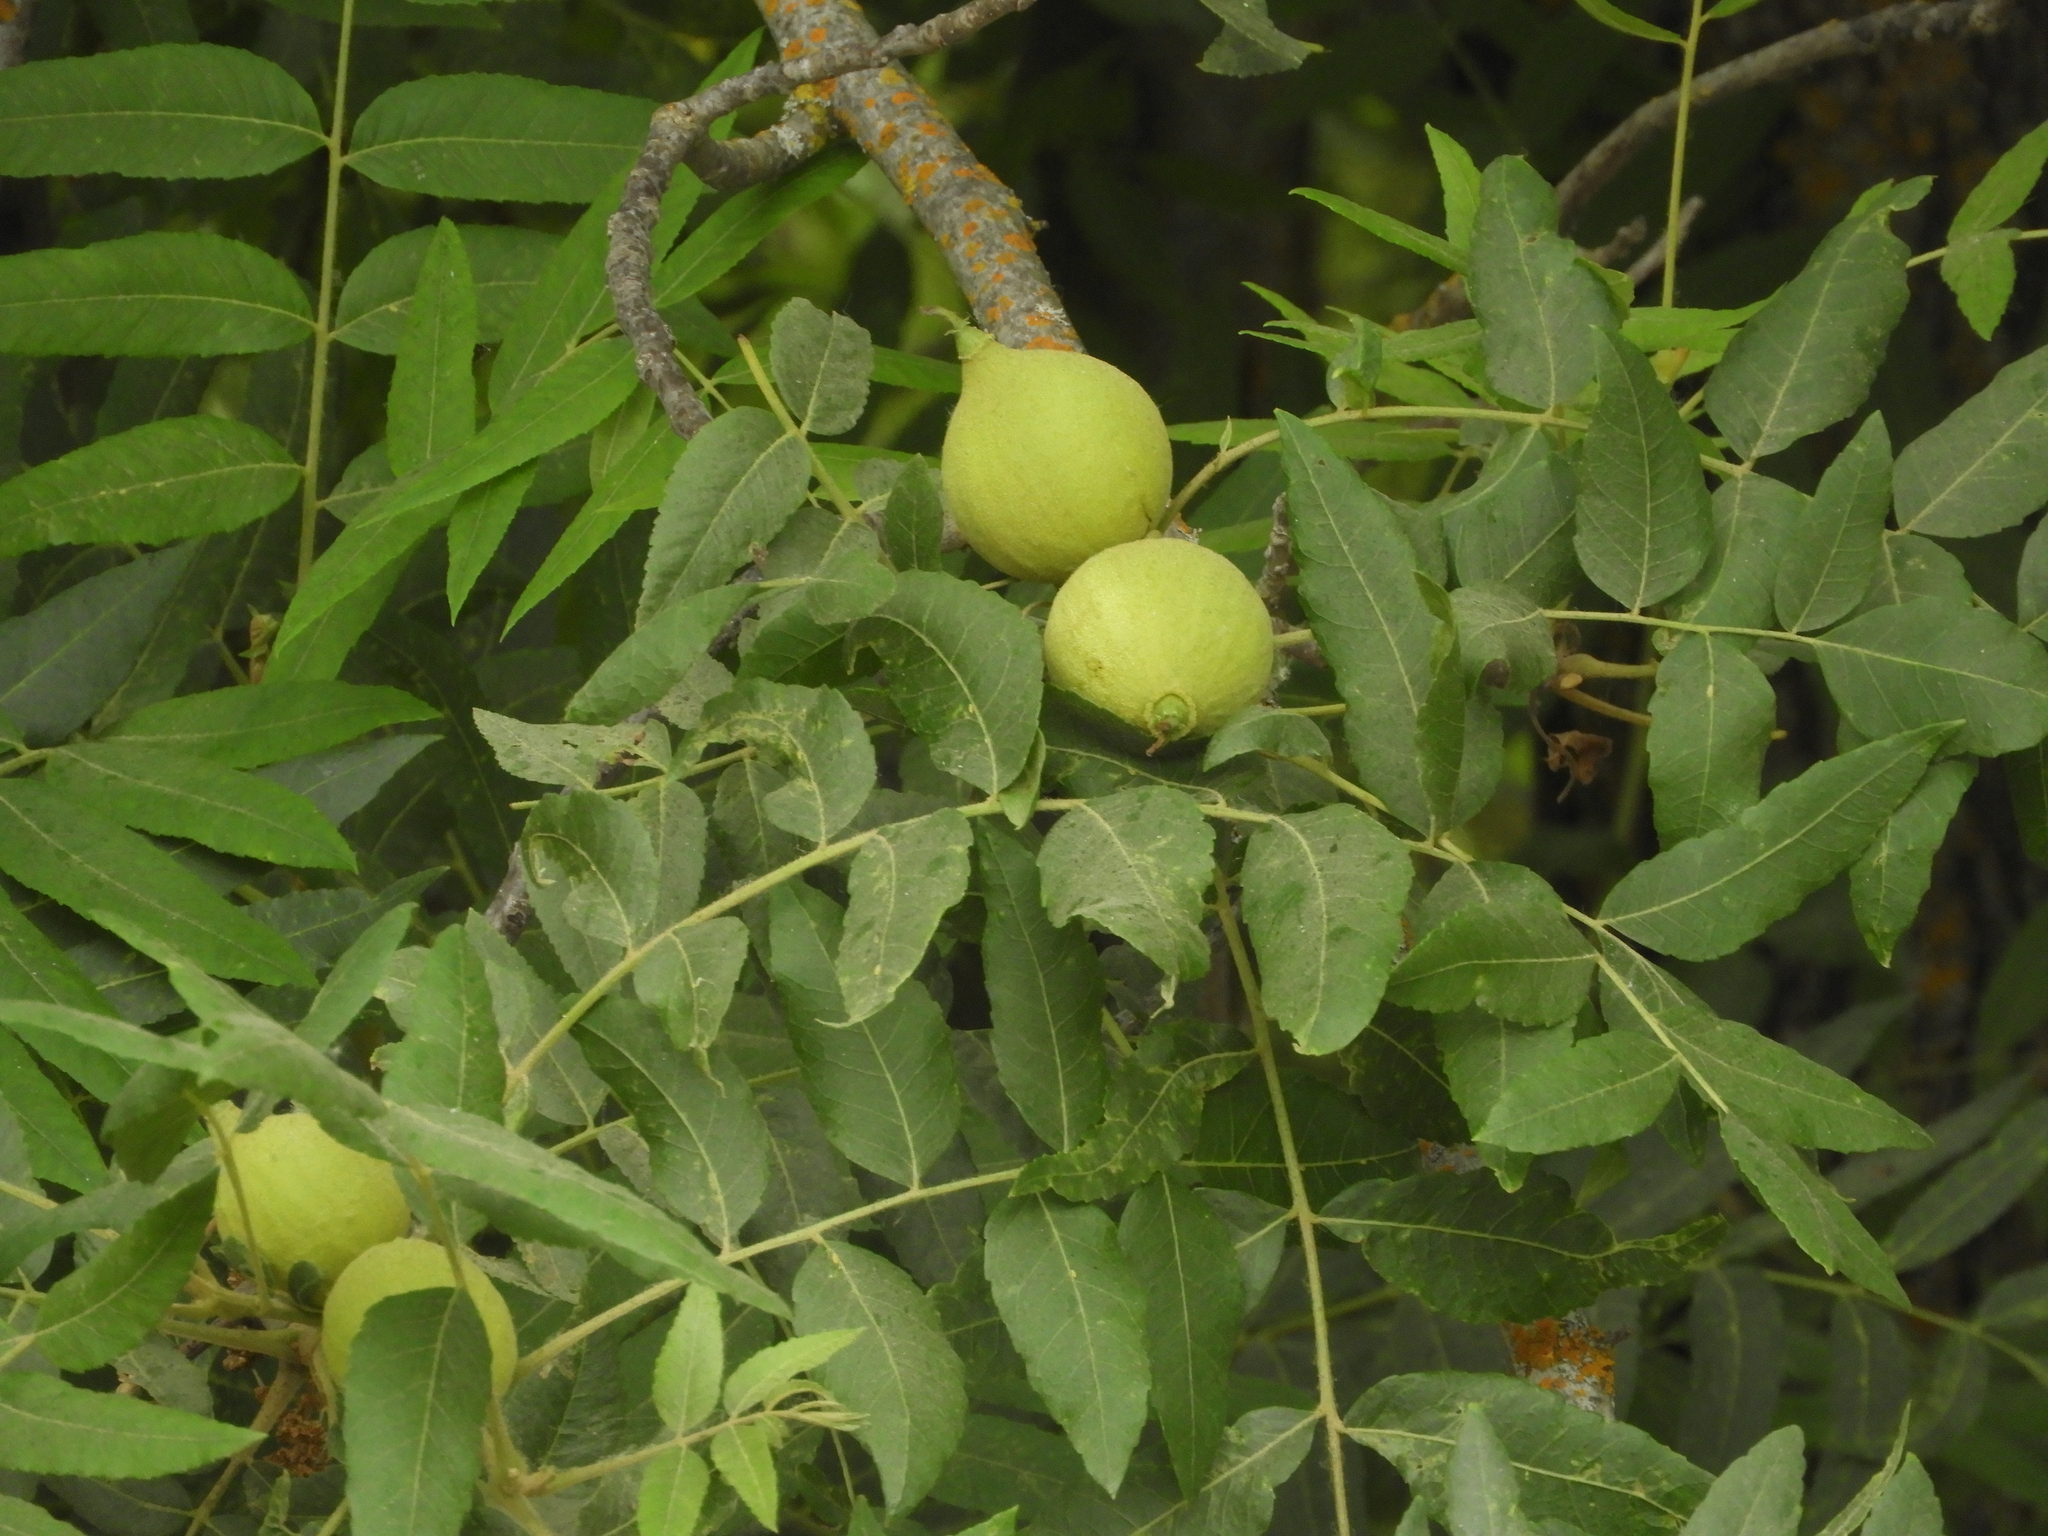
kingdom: Plantae
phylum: Tracheophyta
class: Magnoliopsida
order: Fagales
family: Juglandaceae
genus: Juglans
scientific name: Juglans hindsii
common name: Northern california black walnut
